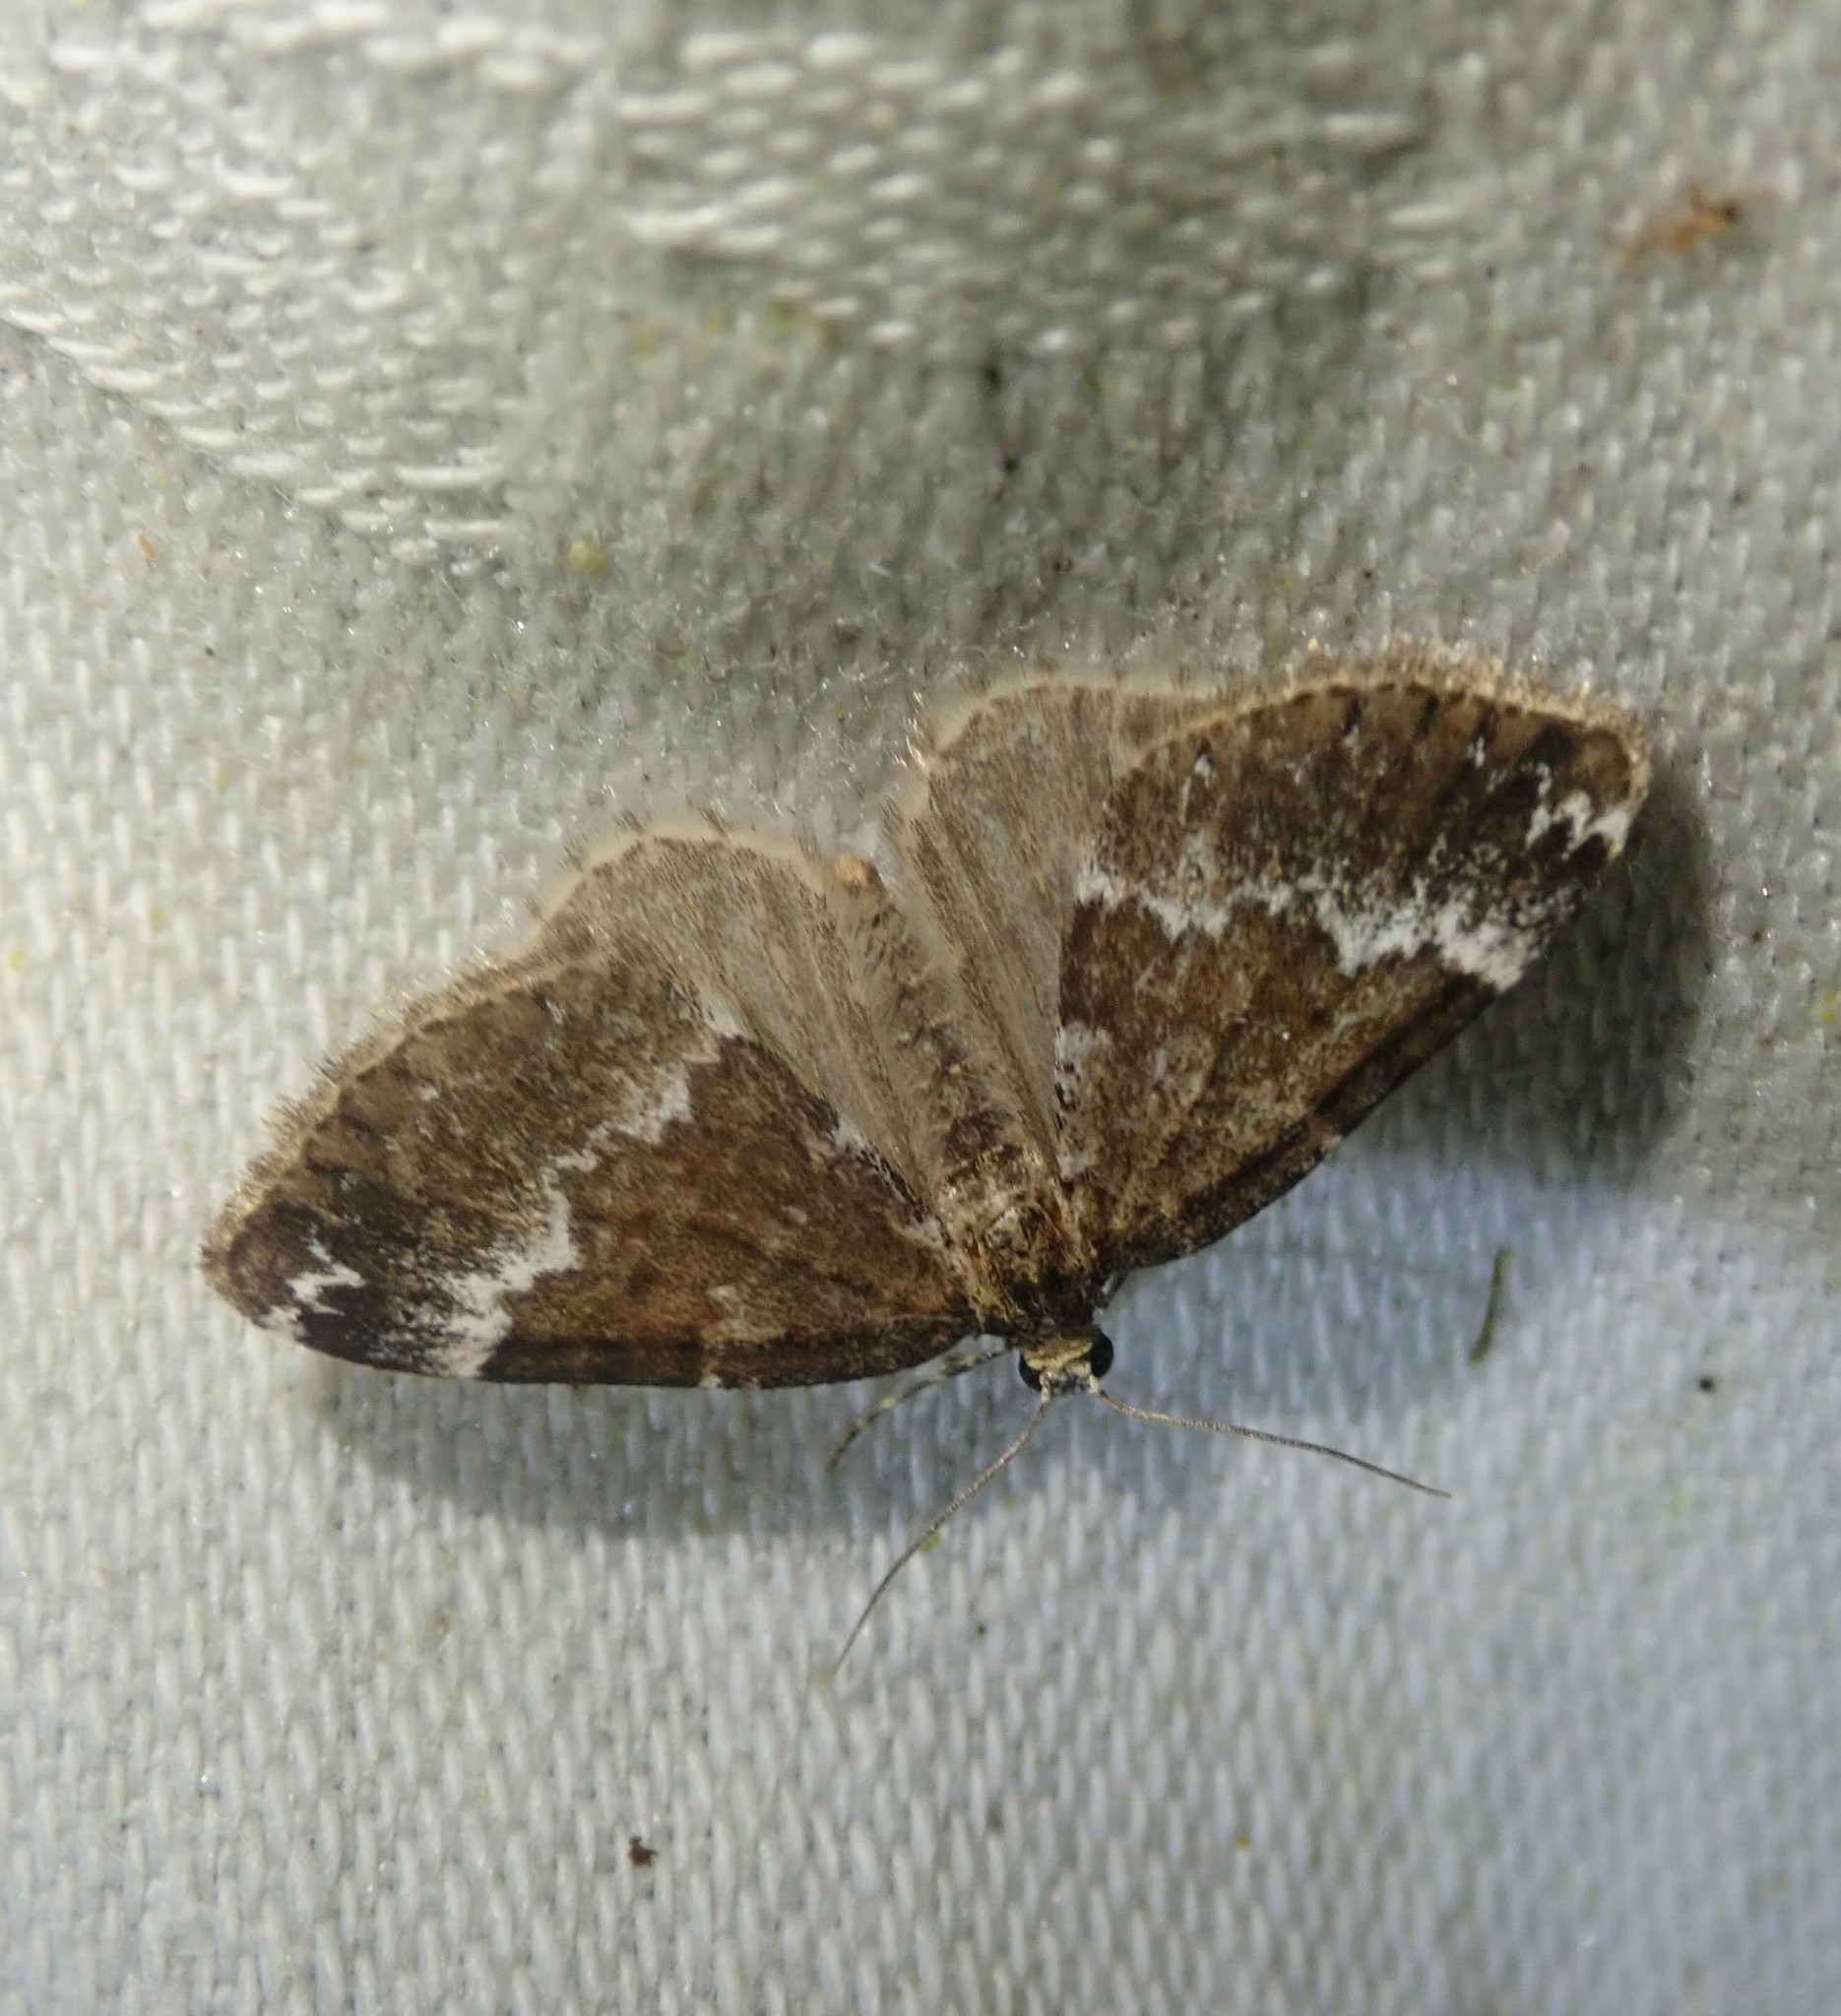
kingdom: Animalia
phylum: Arthropoda
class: Insecta
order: Lepidoptera
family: Geometridae
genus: Perizoma
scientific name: Perizoma alchemillata
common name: Small rivulet
